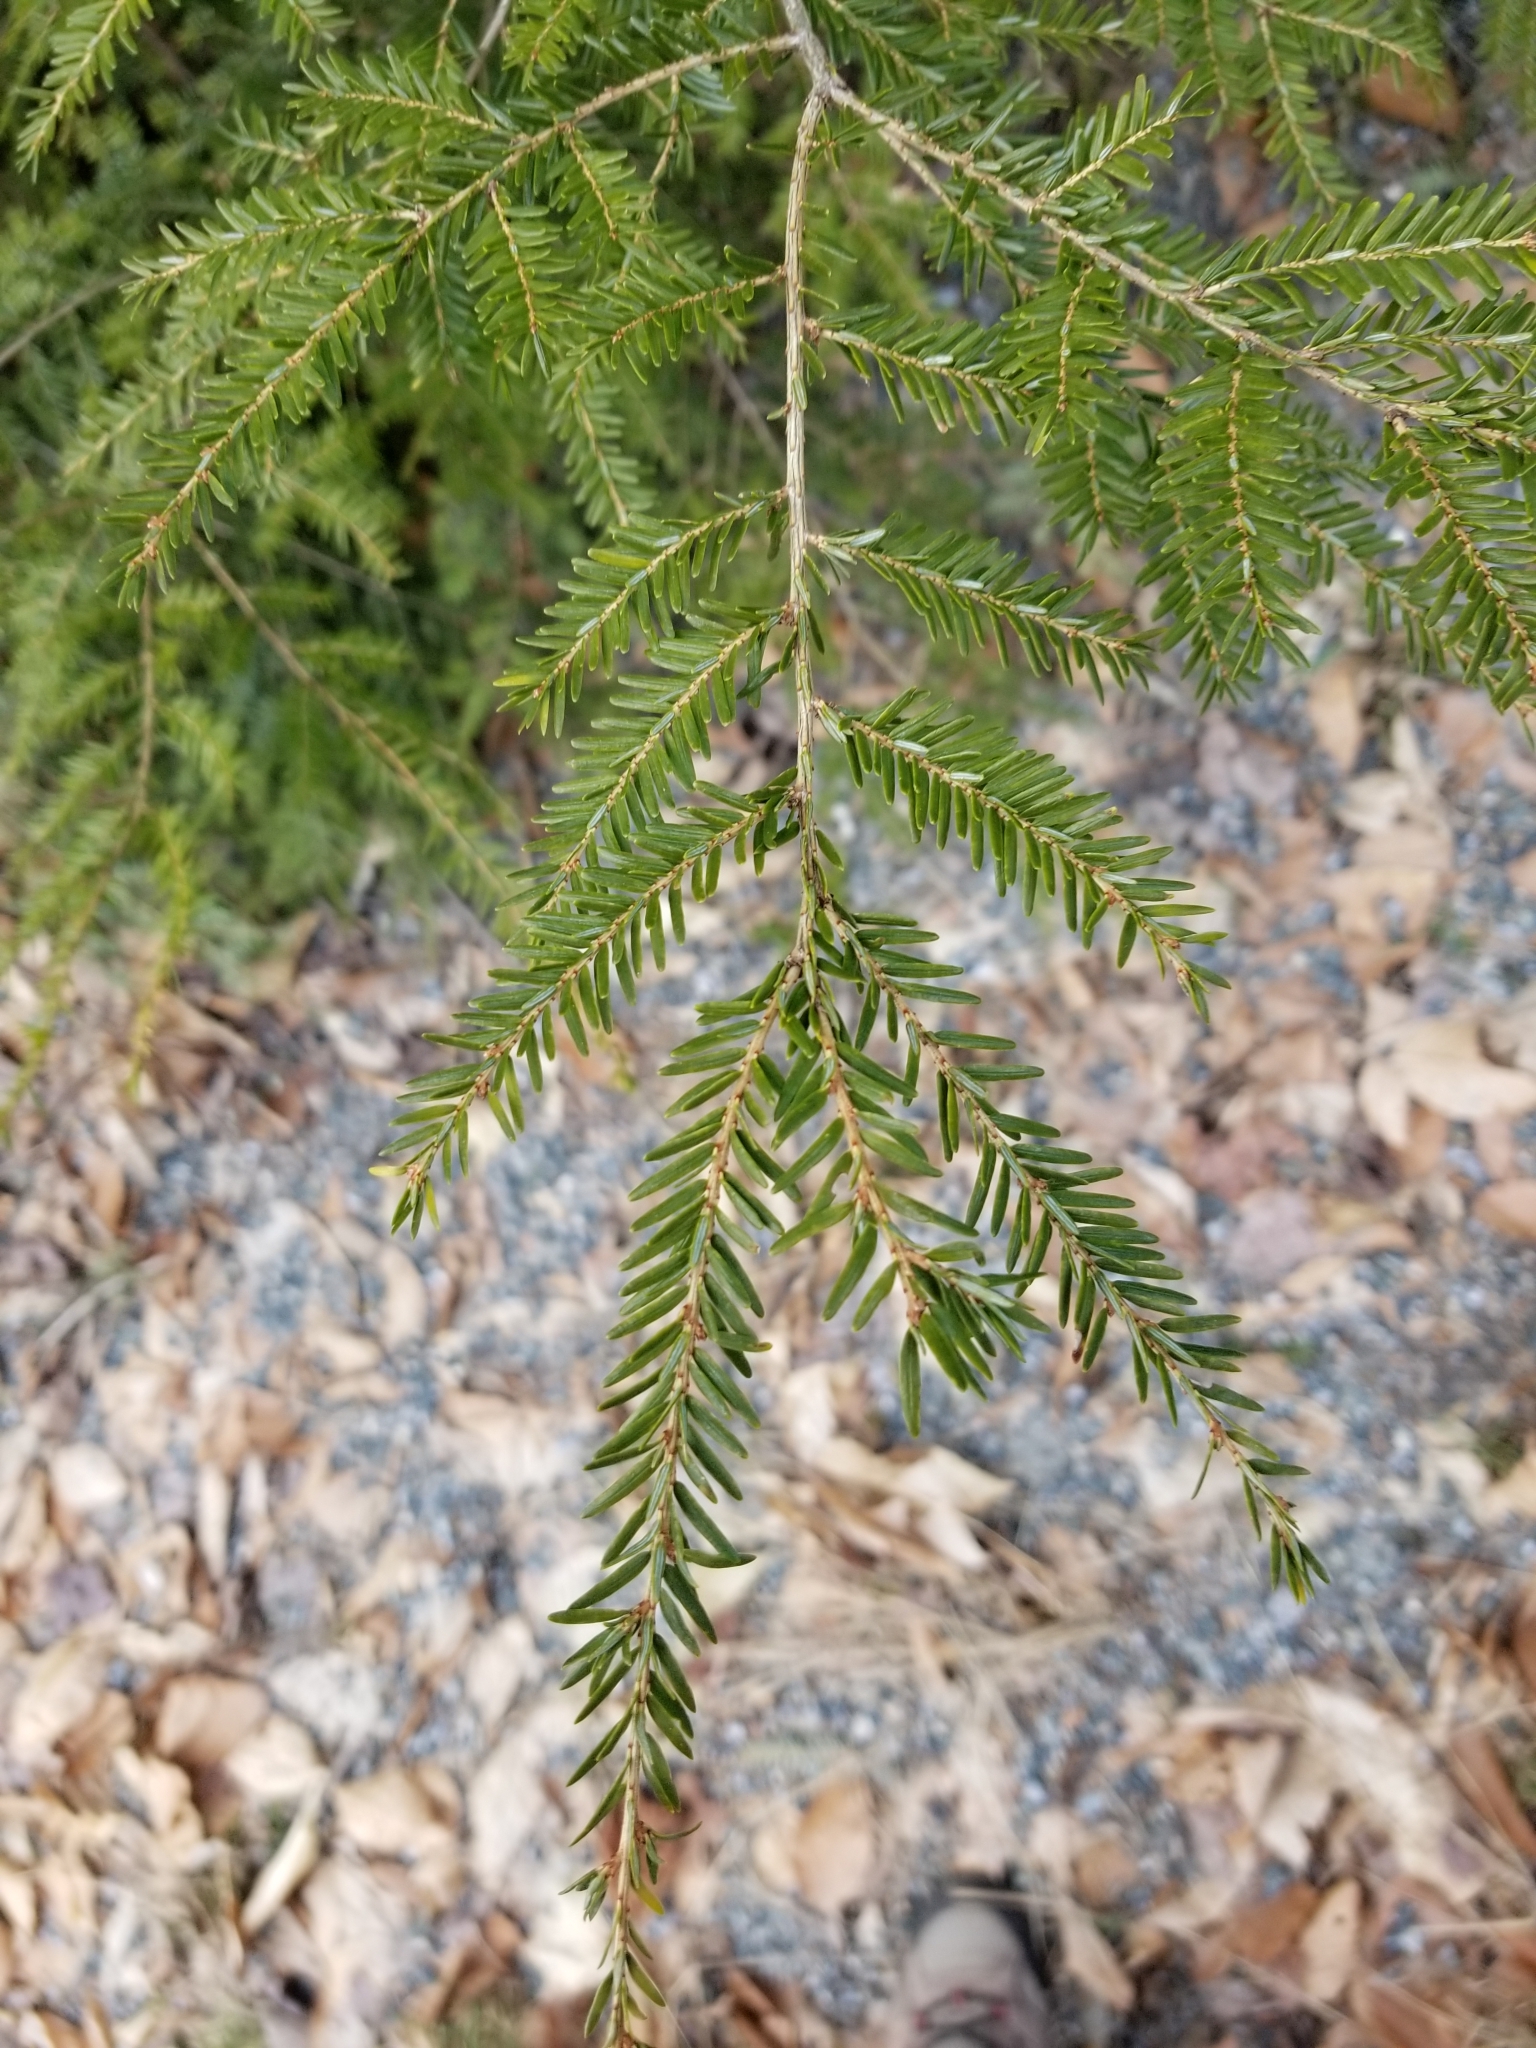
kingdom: Plantae
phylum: Tracheophyta
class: Pinopsida
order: Pinales
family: Pinaceae
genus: Tsuga
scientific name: Tsuga canadensis
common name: Eastern hemlock
